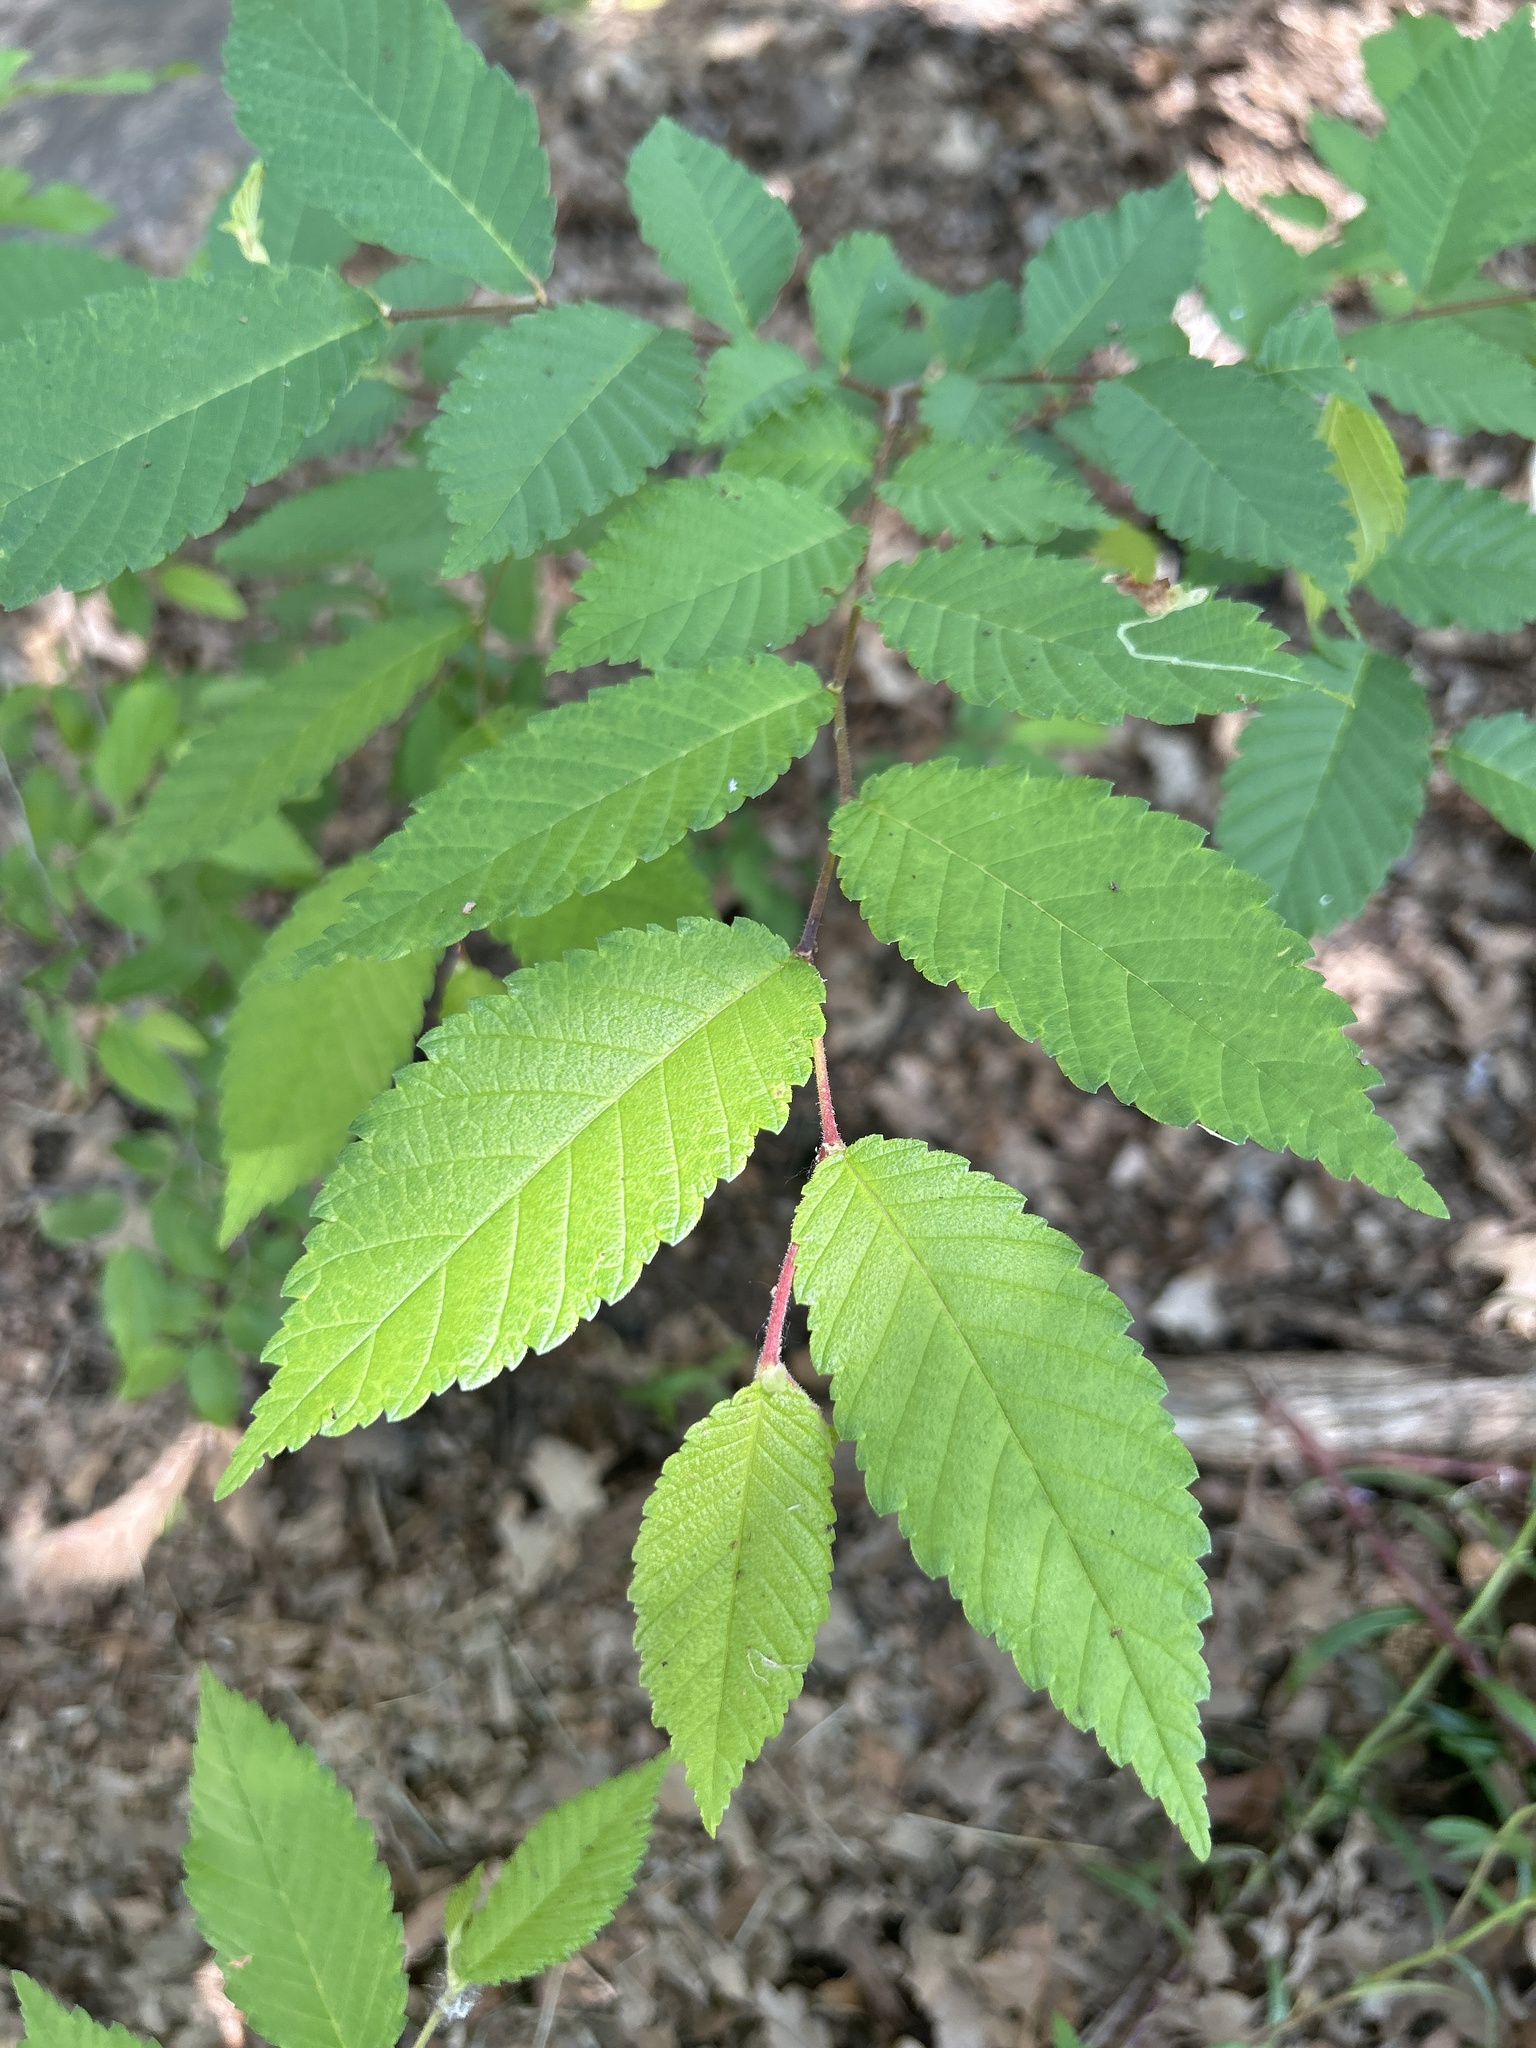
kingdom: Plantae
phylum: Tracheophyta
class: Magnoliopsida
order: Rosales
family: Ulmaceae
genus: Ulmus
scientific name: Ulmus alata
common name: Winged elm
